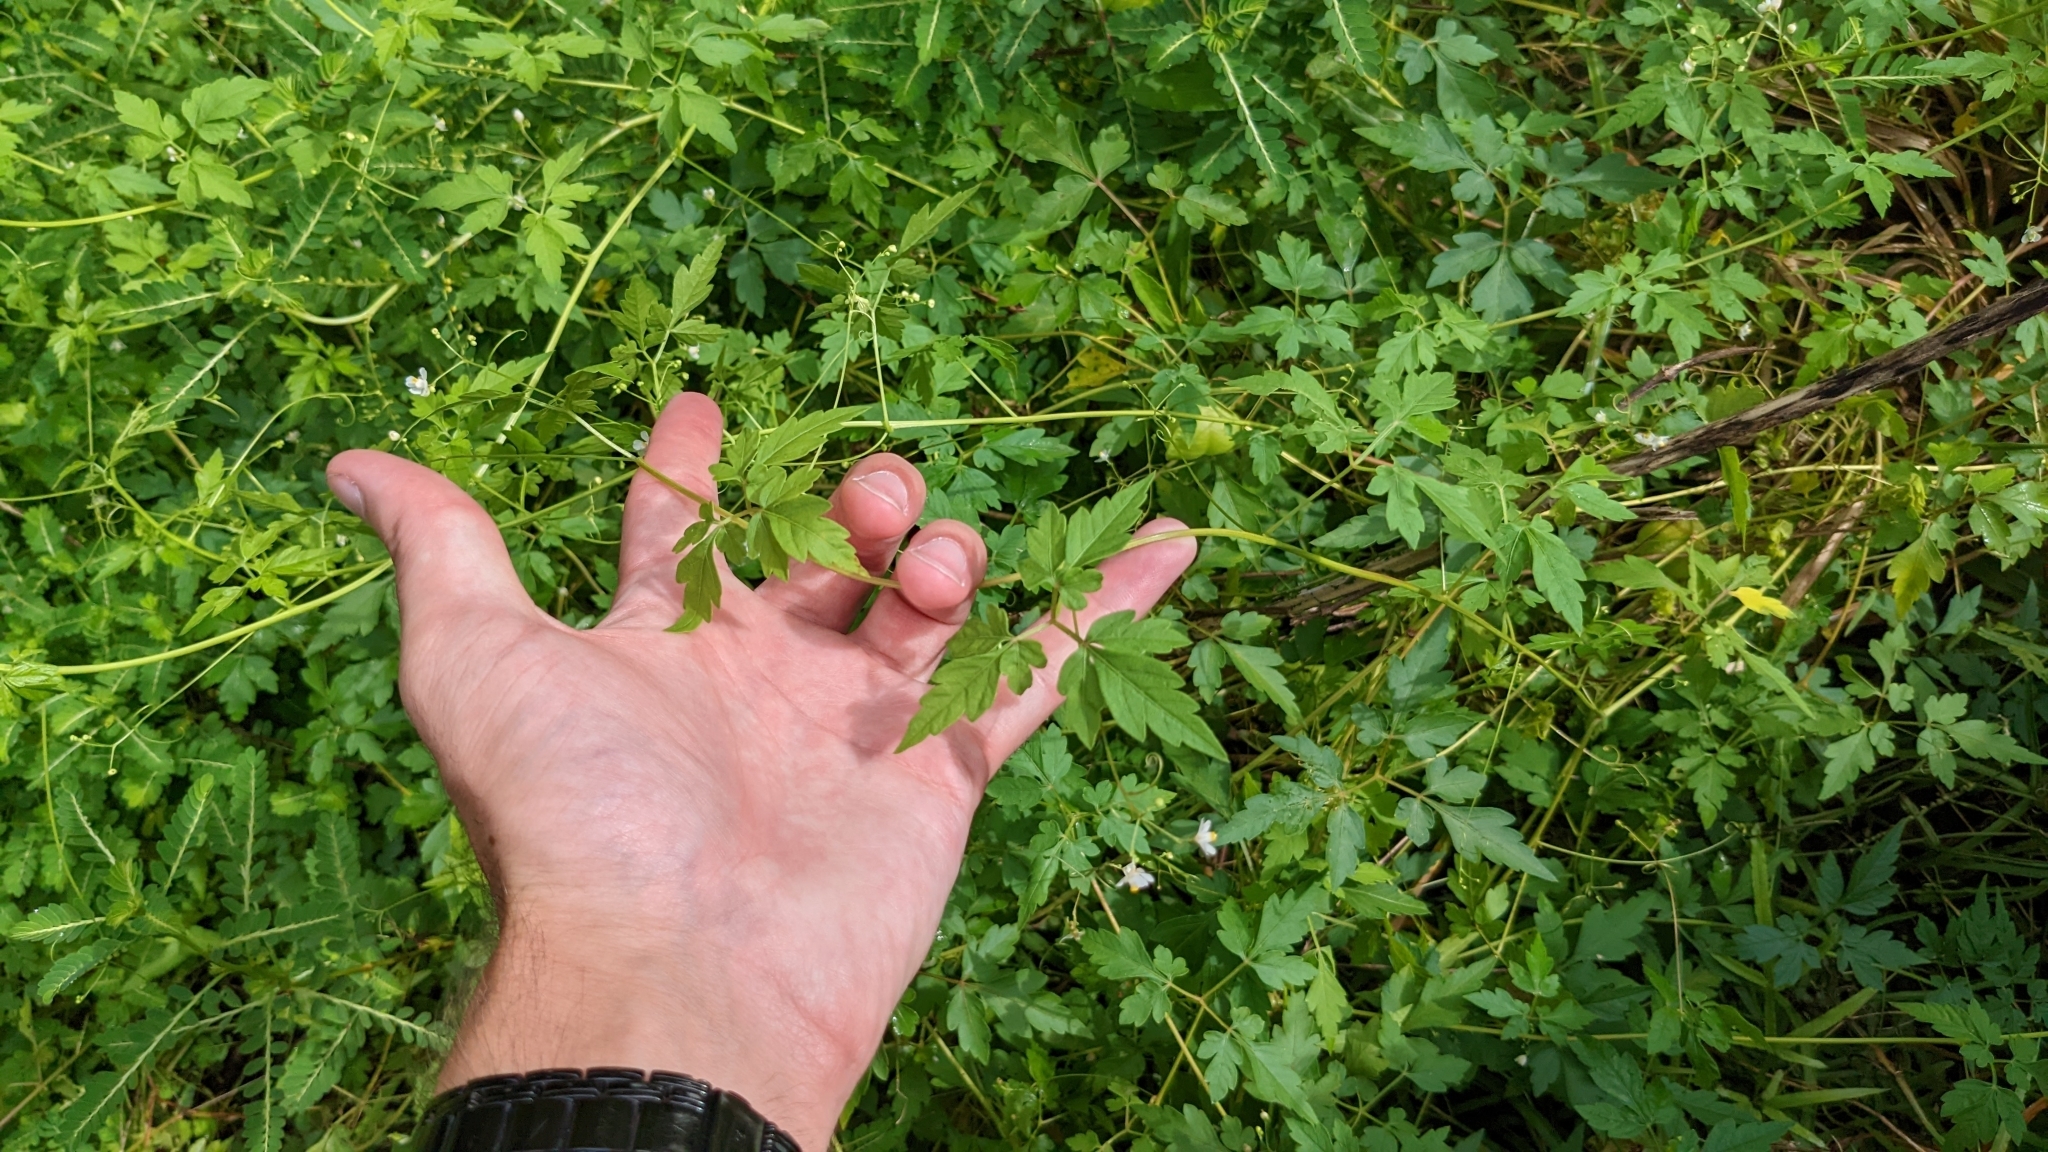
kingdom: Plantae
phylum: Tracheophyta
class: Magnoliopsida
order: Sapindales
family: Sapindaceae
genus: Cardiospermum
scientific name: Cardiospermum halicacabum
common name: Balloon vine
